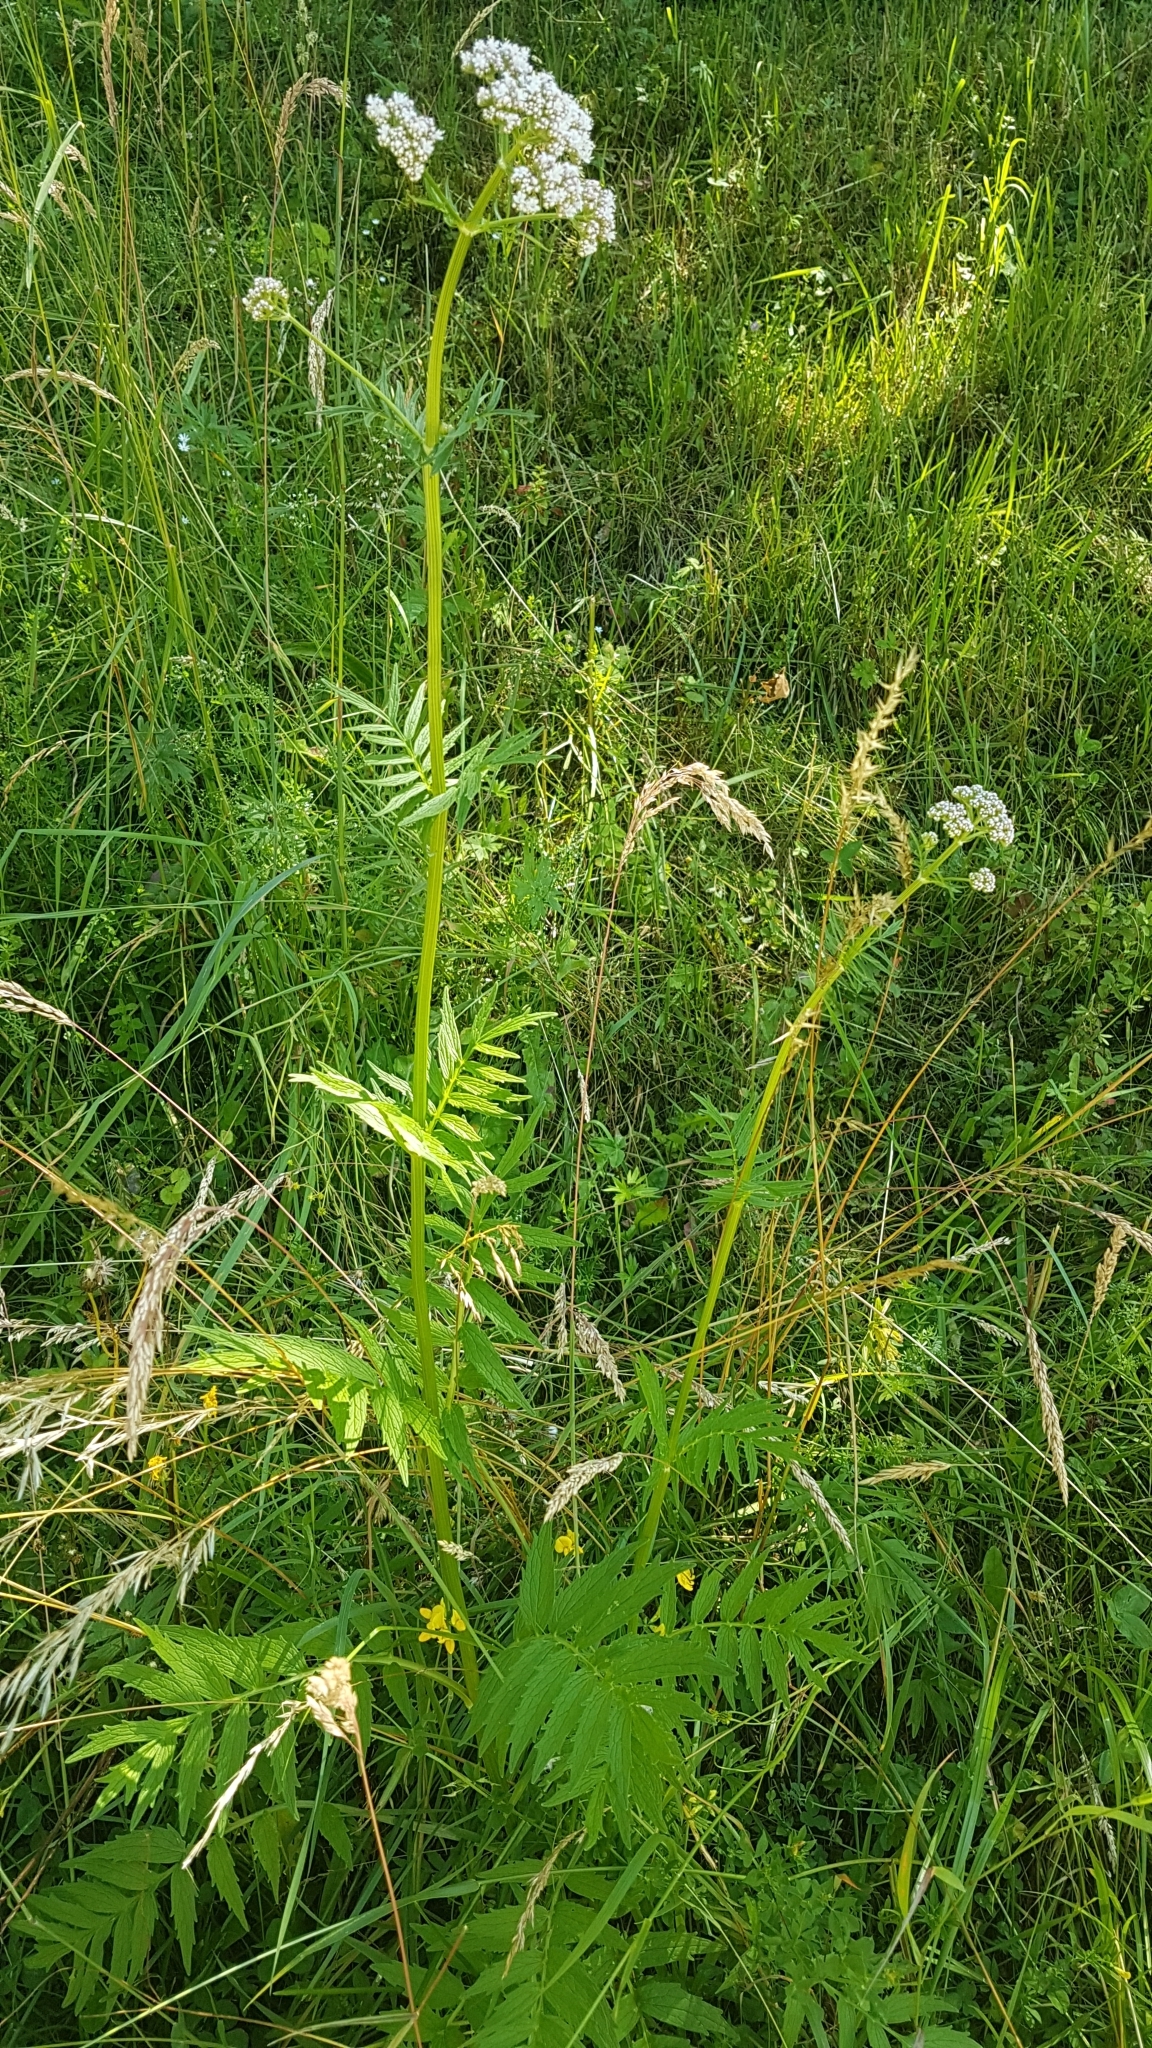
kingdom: Plantae
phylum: Tracheophyta
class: Magnoliopsida
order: Dipsacales
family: Caprifoliaceae
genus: Valeriana
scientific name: Valeriana officinalis
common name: Common valerian
